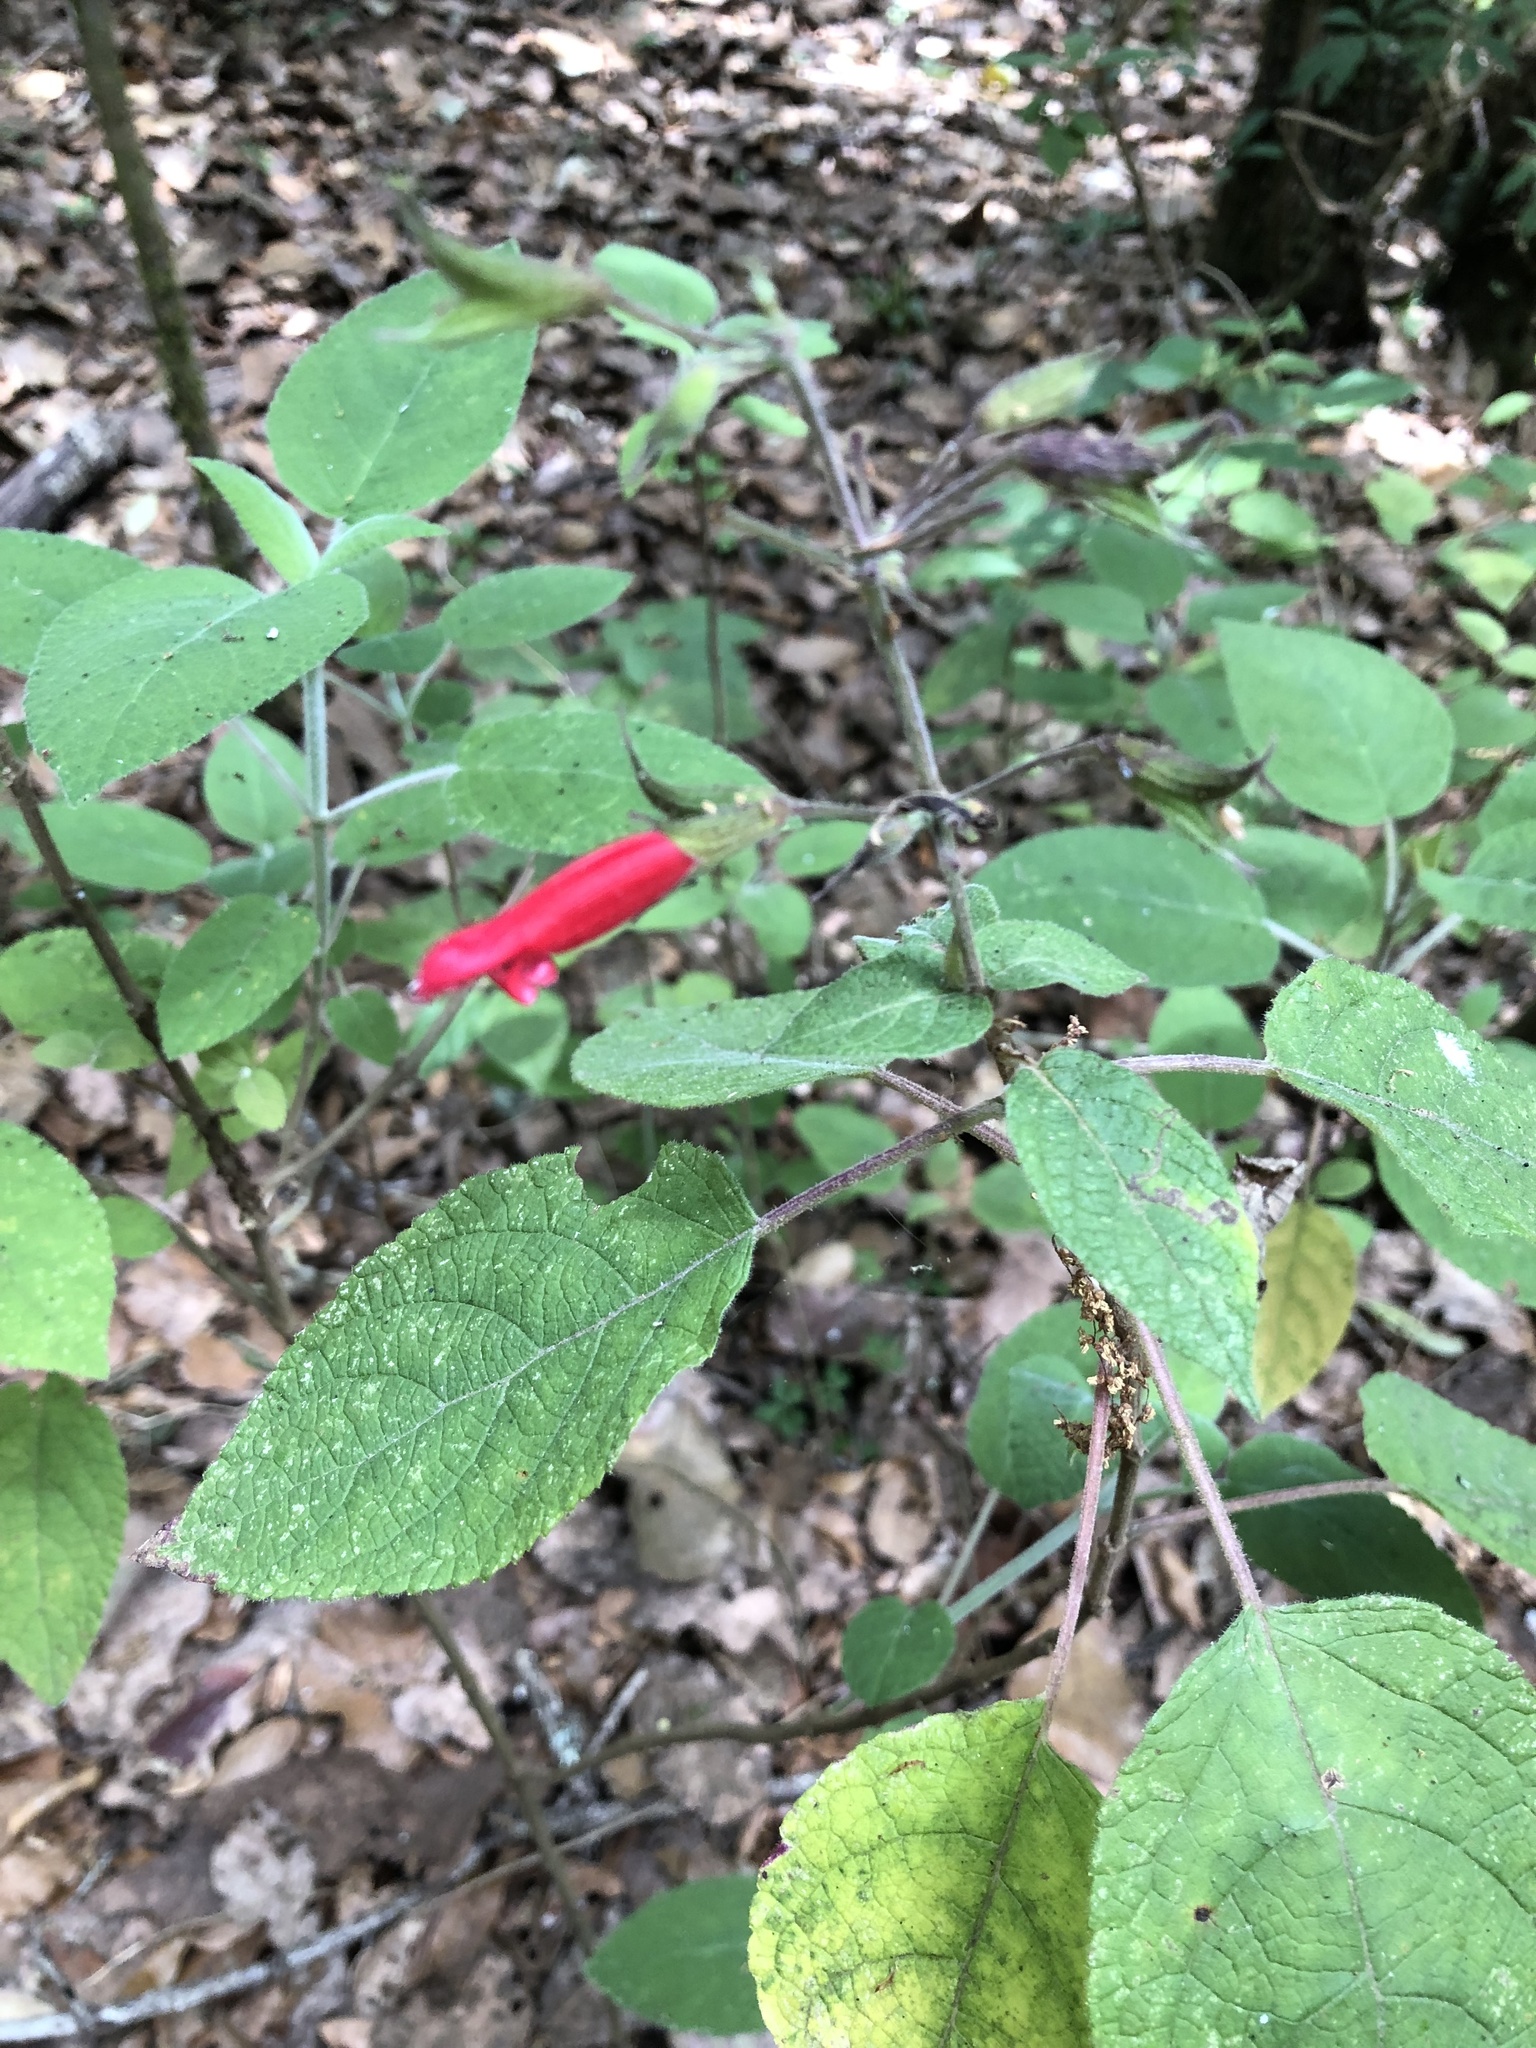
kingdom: Plantae
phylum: Tracheophyta
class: Magnoliopsida
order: Lamiales
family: Lamiaceae
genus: Salvia
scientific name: Salvia karwinskii
